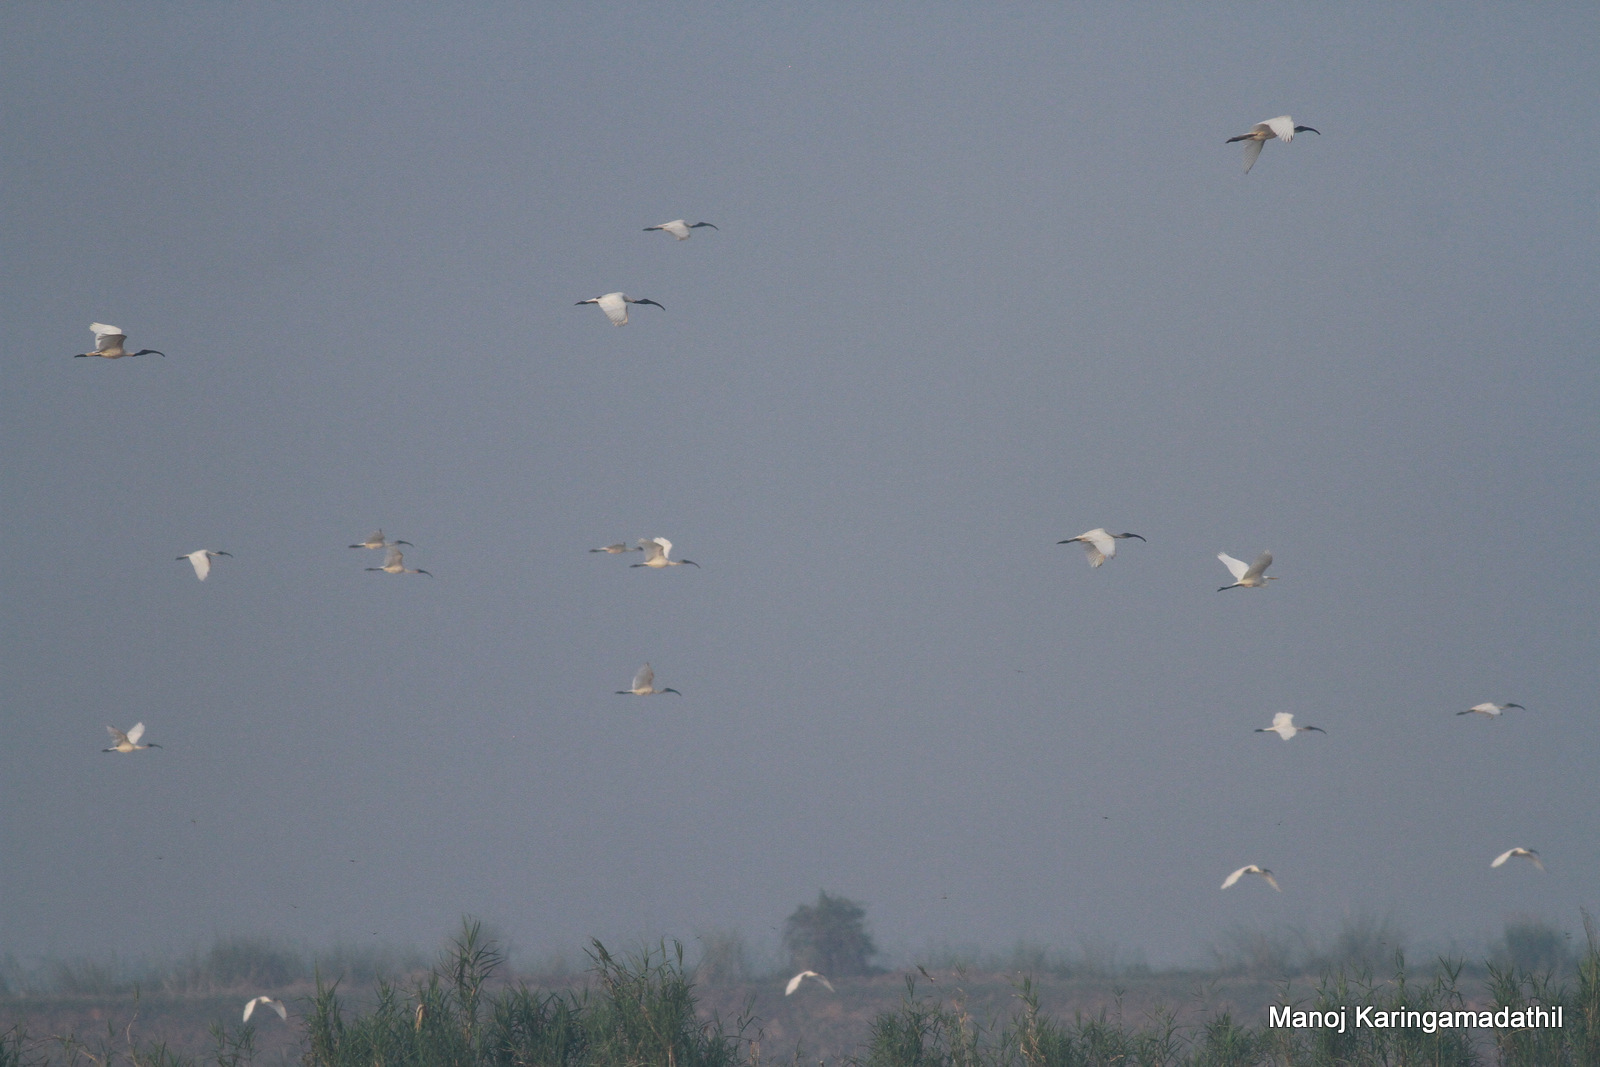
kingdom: Animalia
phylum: Chordata
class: Aves
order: Pelecaniformes
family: Threskiornithidae
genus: Threskiornis
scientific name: Threskiornis melanocephalus
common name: Black-headed ibis
